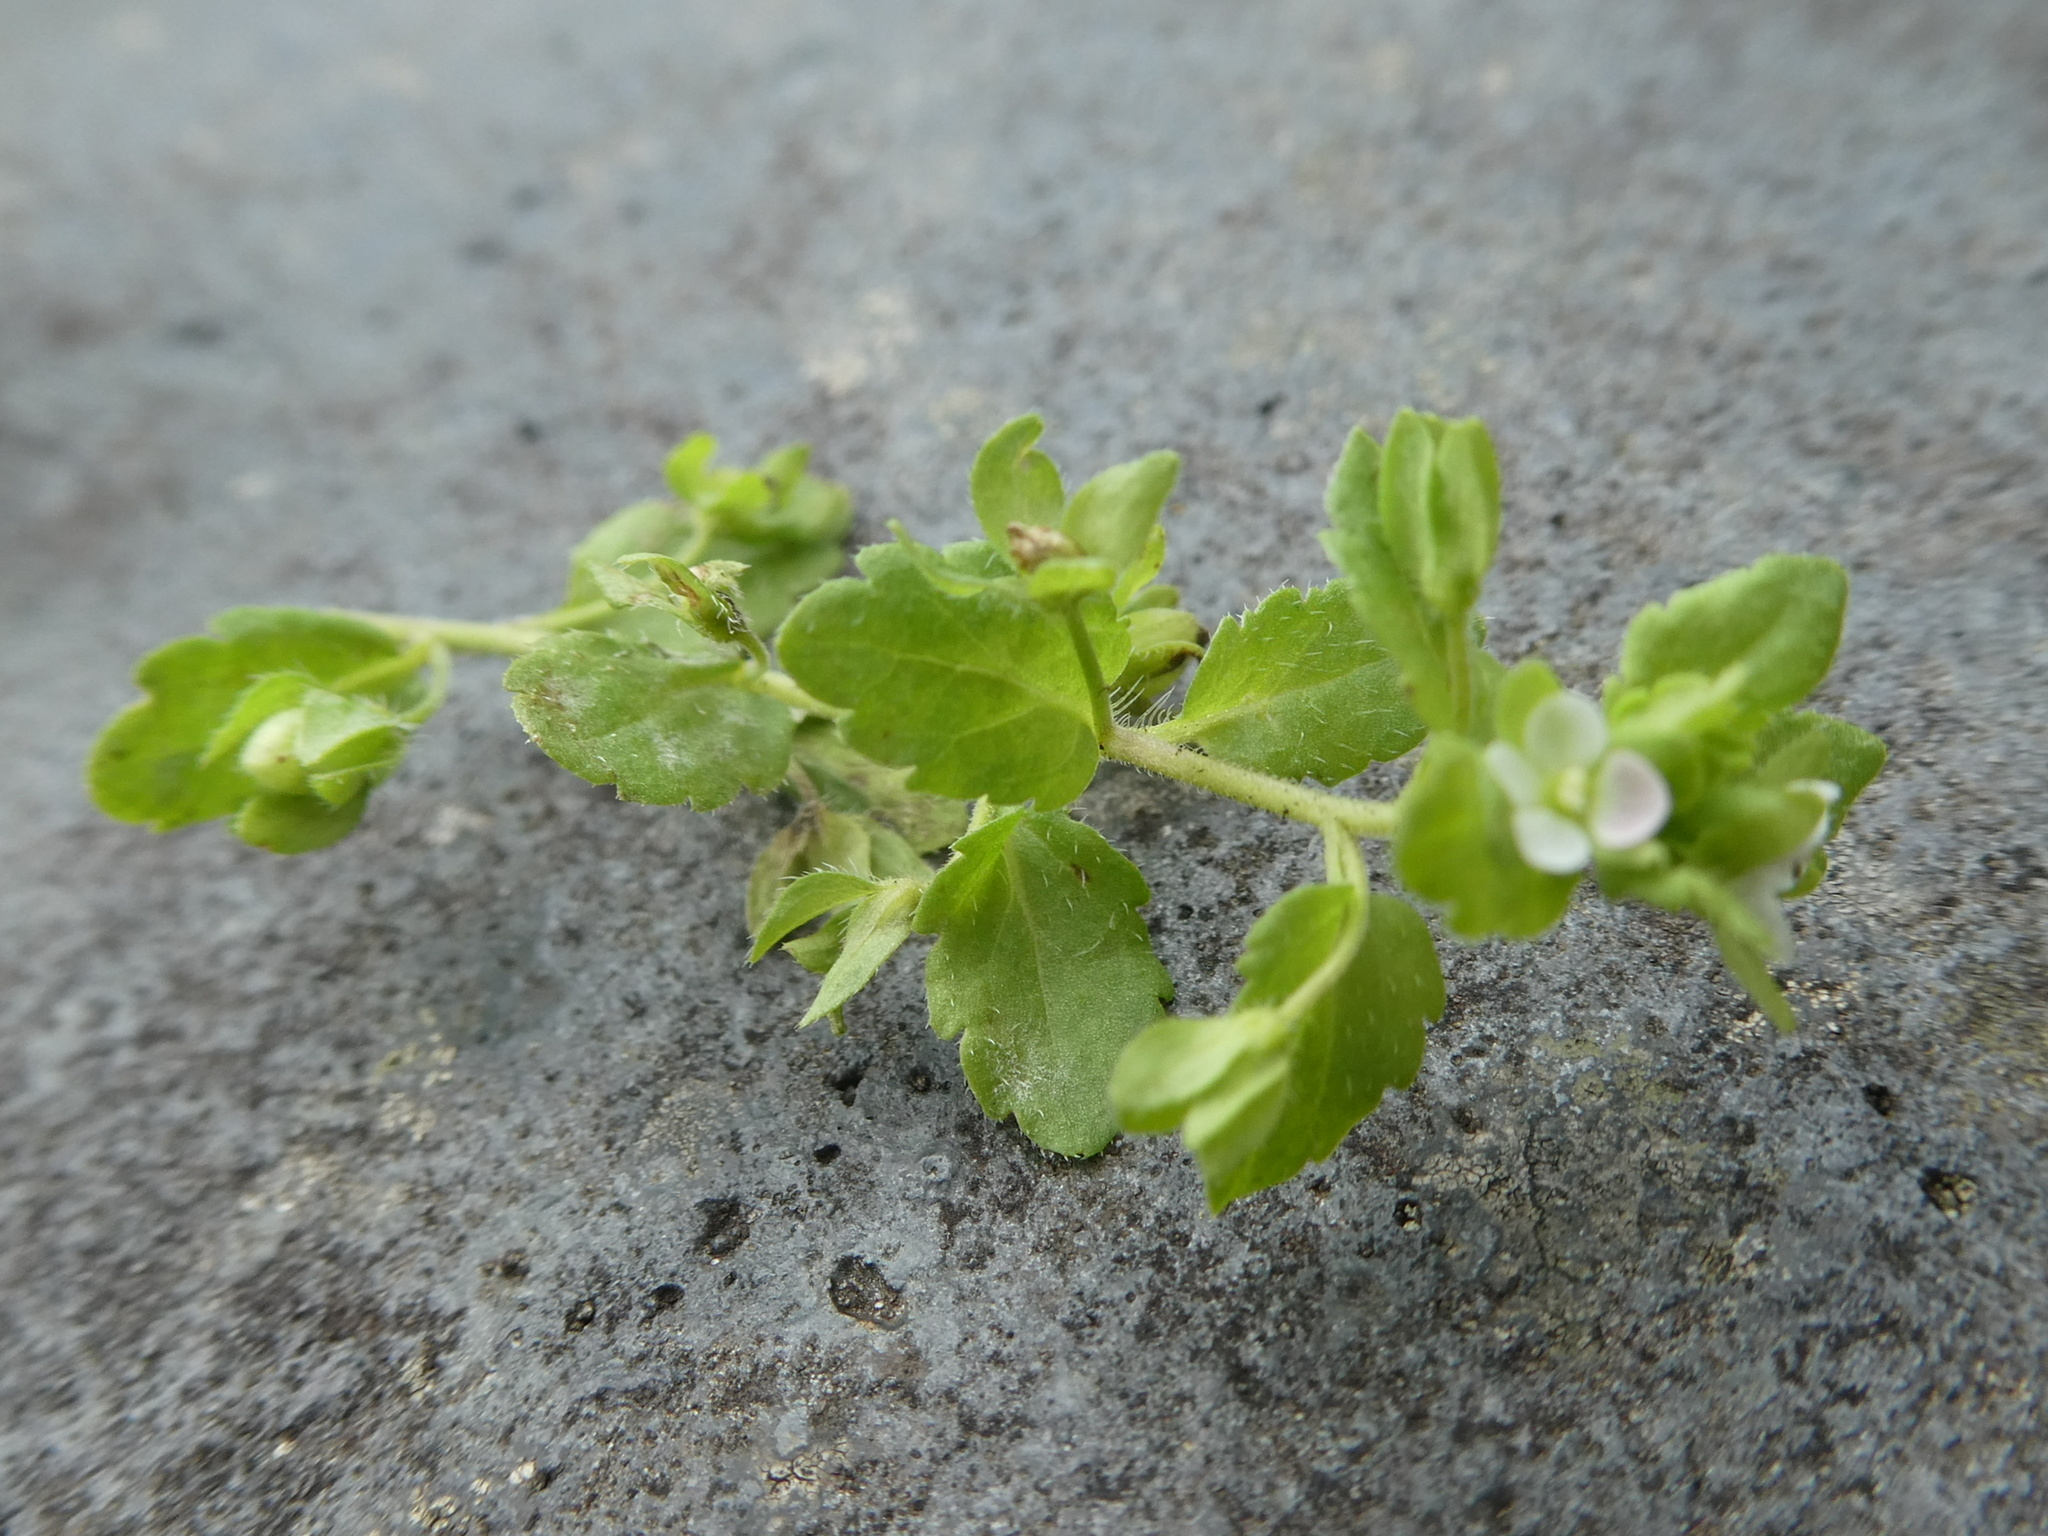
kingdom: Plantae
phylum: Tracheophyta
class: Magnoliopsida
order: Lamiales
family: Plantaginaceae
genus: Veronica
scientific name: Veronica agrestis
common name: Green field-speedwell
